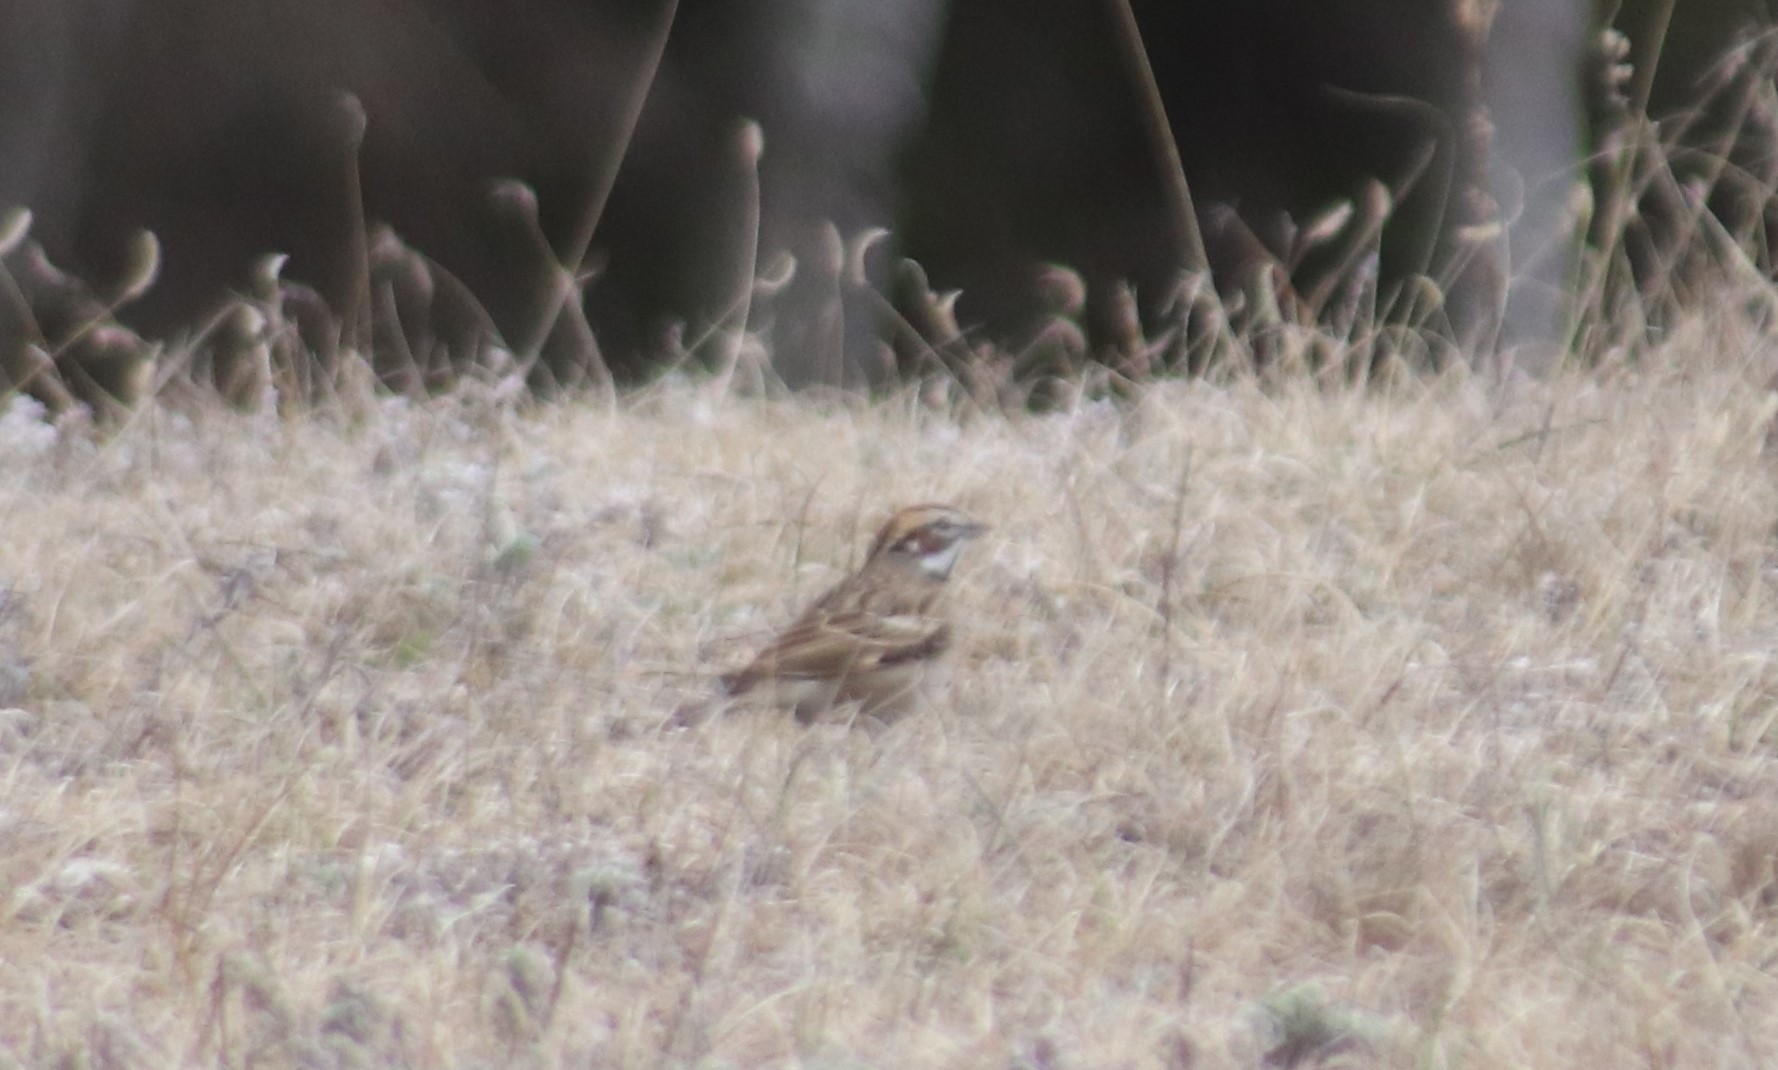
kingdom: Animalia
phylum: Chordata
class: Aves
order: Passeriformes
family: Passerellidae
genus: Chondestes
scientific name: Chondestes grammacus
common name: Lark sparrow
